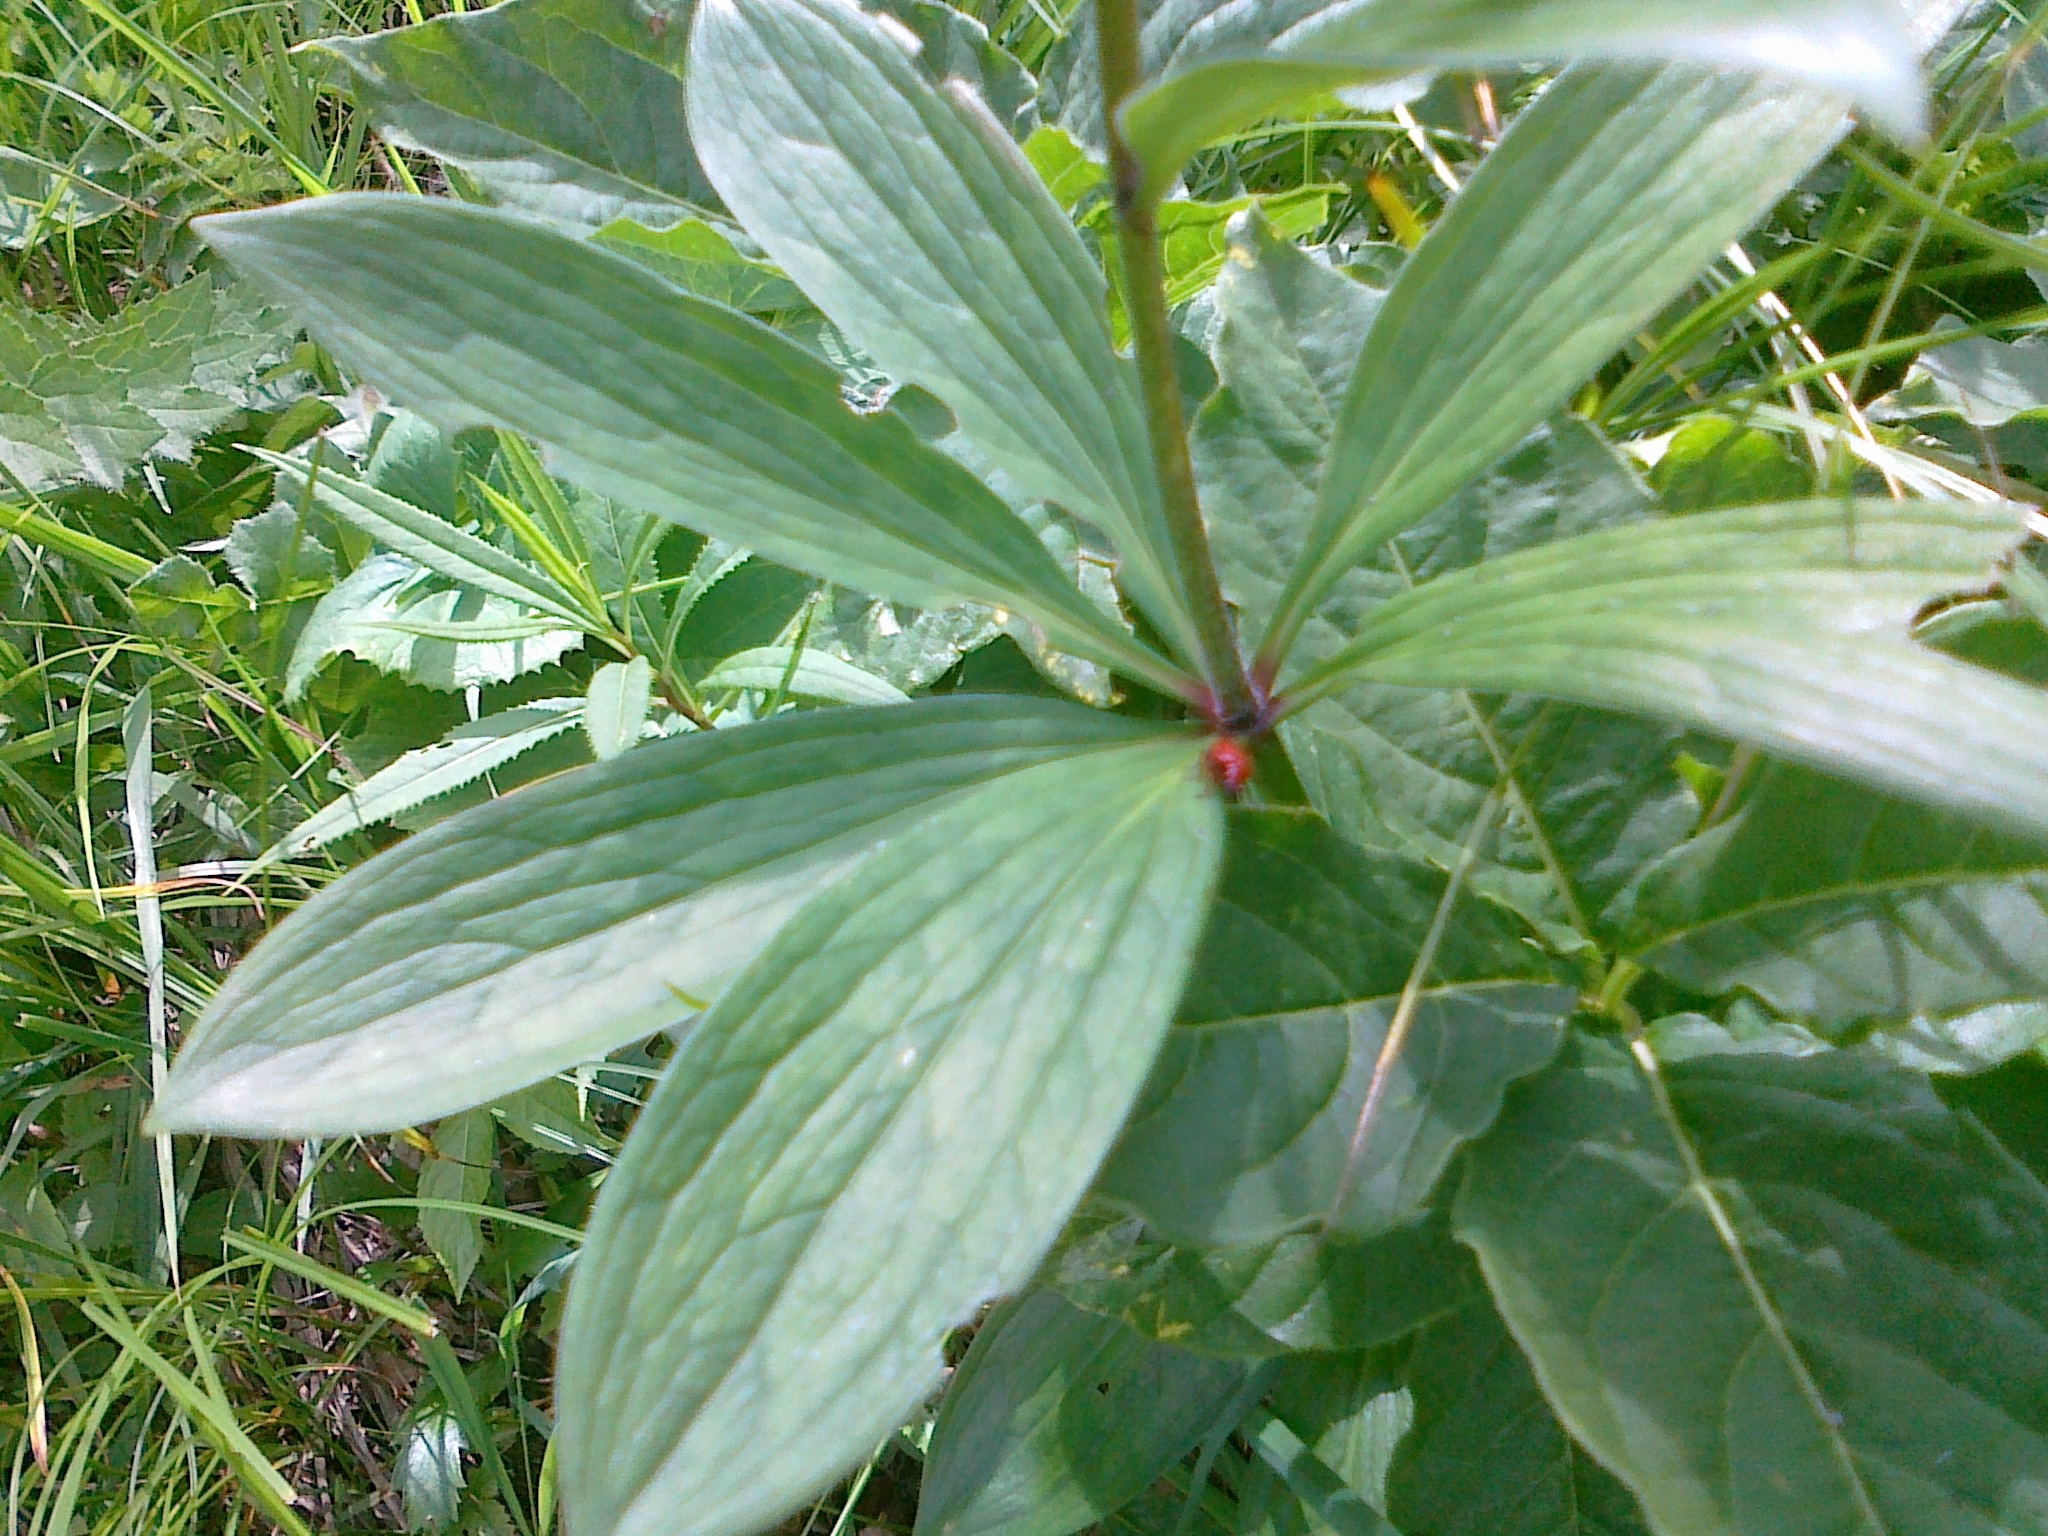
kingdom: Plantae
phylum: Tracheophyta
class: Liliopsida
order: Liliales
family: Liliaceae
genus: Lilium
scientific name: Lilium martagon
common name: Martagon lily
